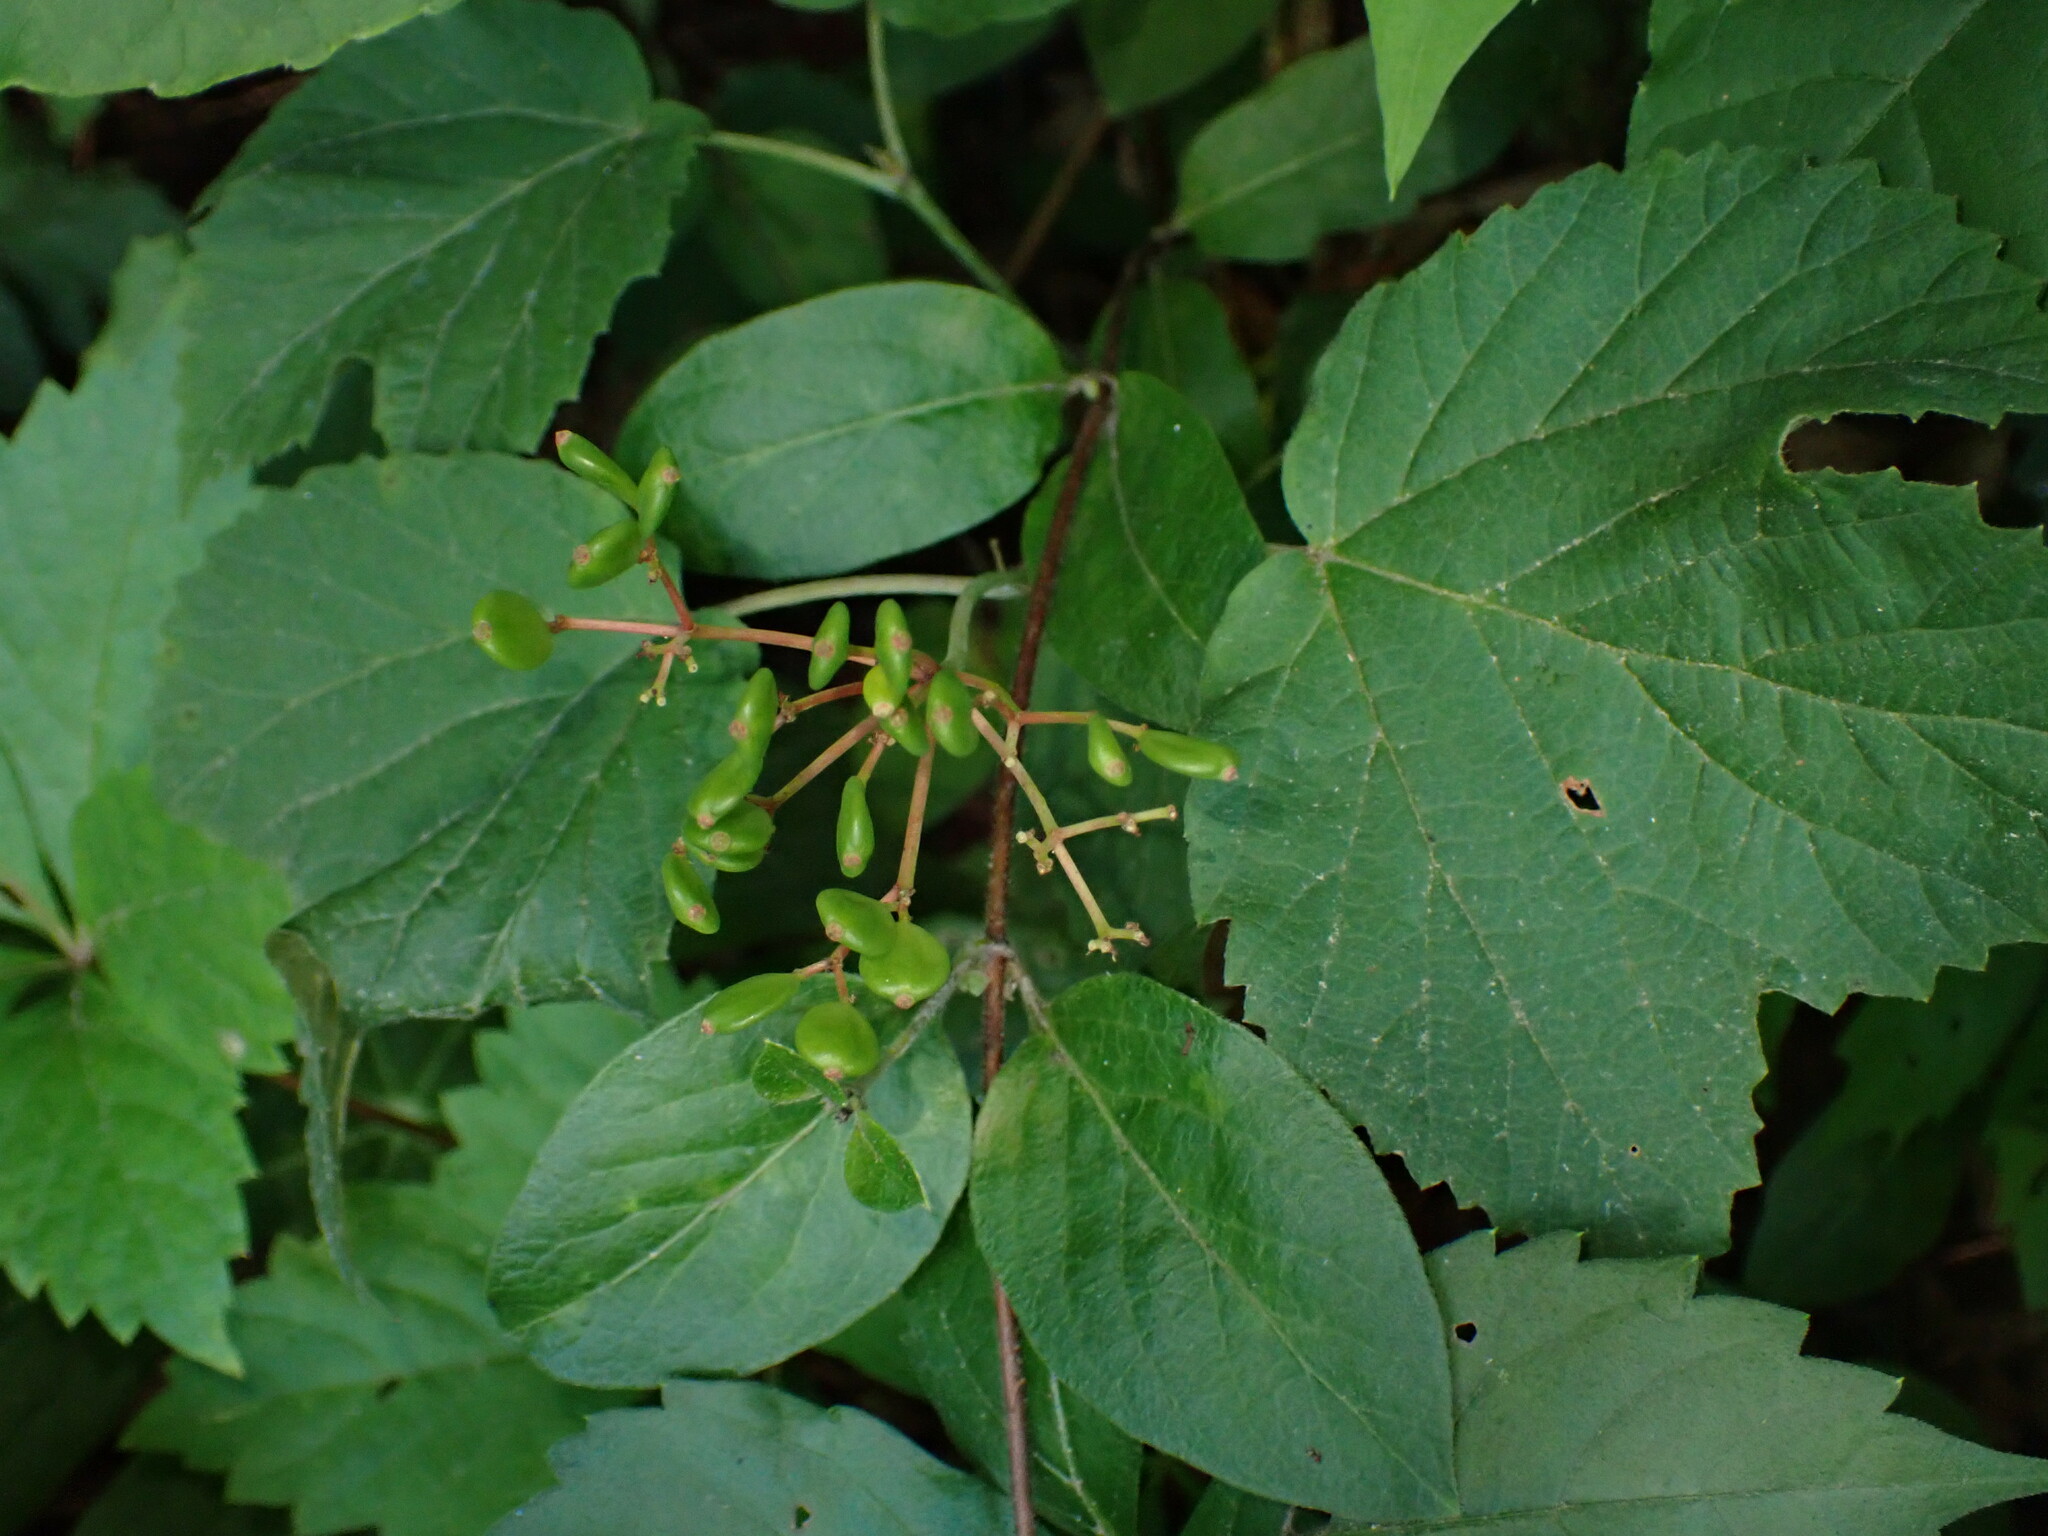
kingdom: Plantae
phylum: Tracheophyta
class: Magnoliopsida
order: Dipsacales
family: Viburnaceae
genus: Viburnum
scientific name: Viburnum acerifolium
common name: Dockmackie
